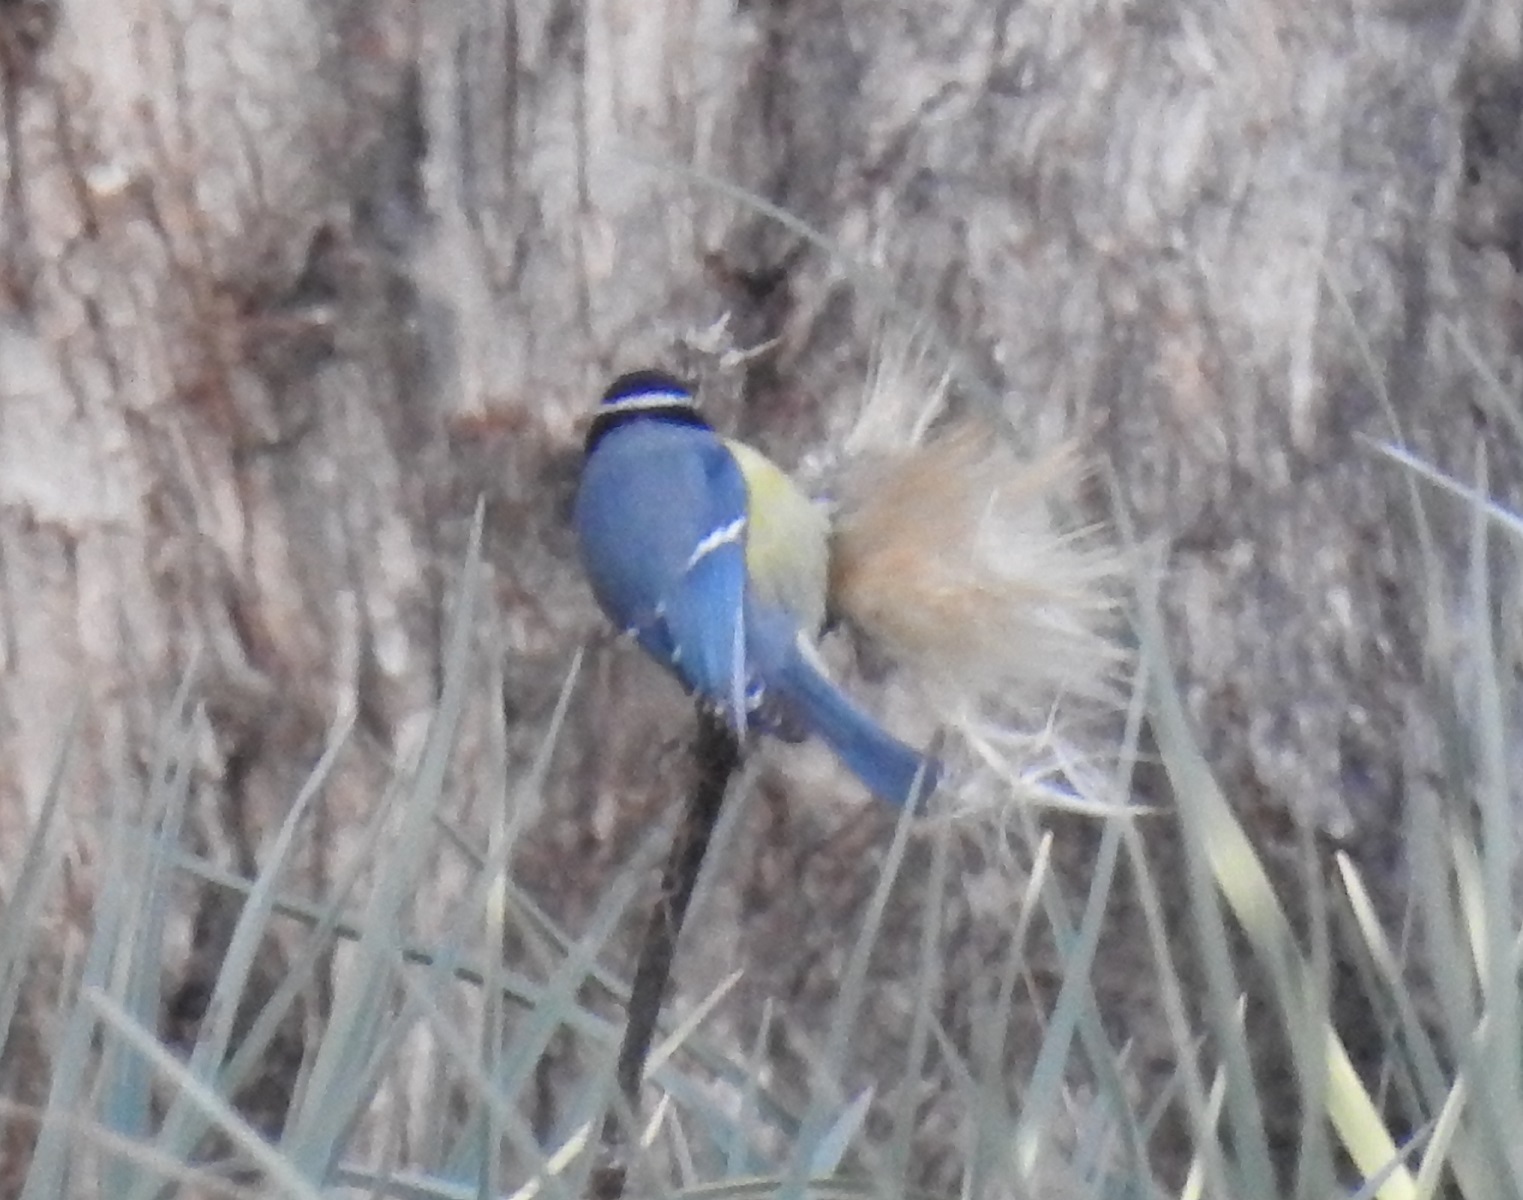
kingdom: Animalia
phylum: Chordata
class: Aves
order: Passeriformes
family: Paridae
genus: Cyanistes
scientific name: Cyanistes teneriffae
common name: African blue tit
